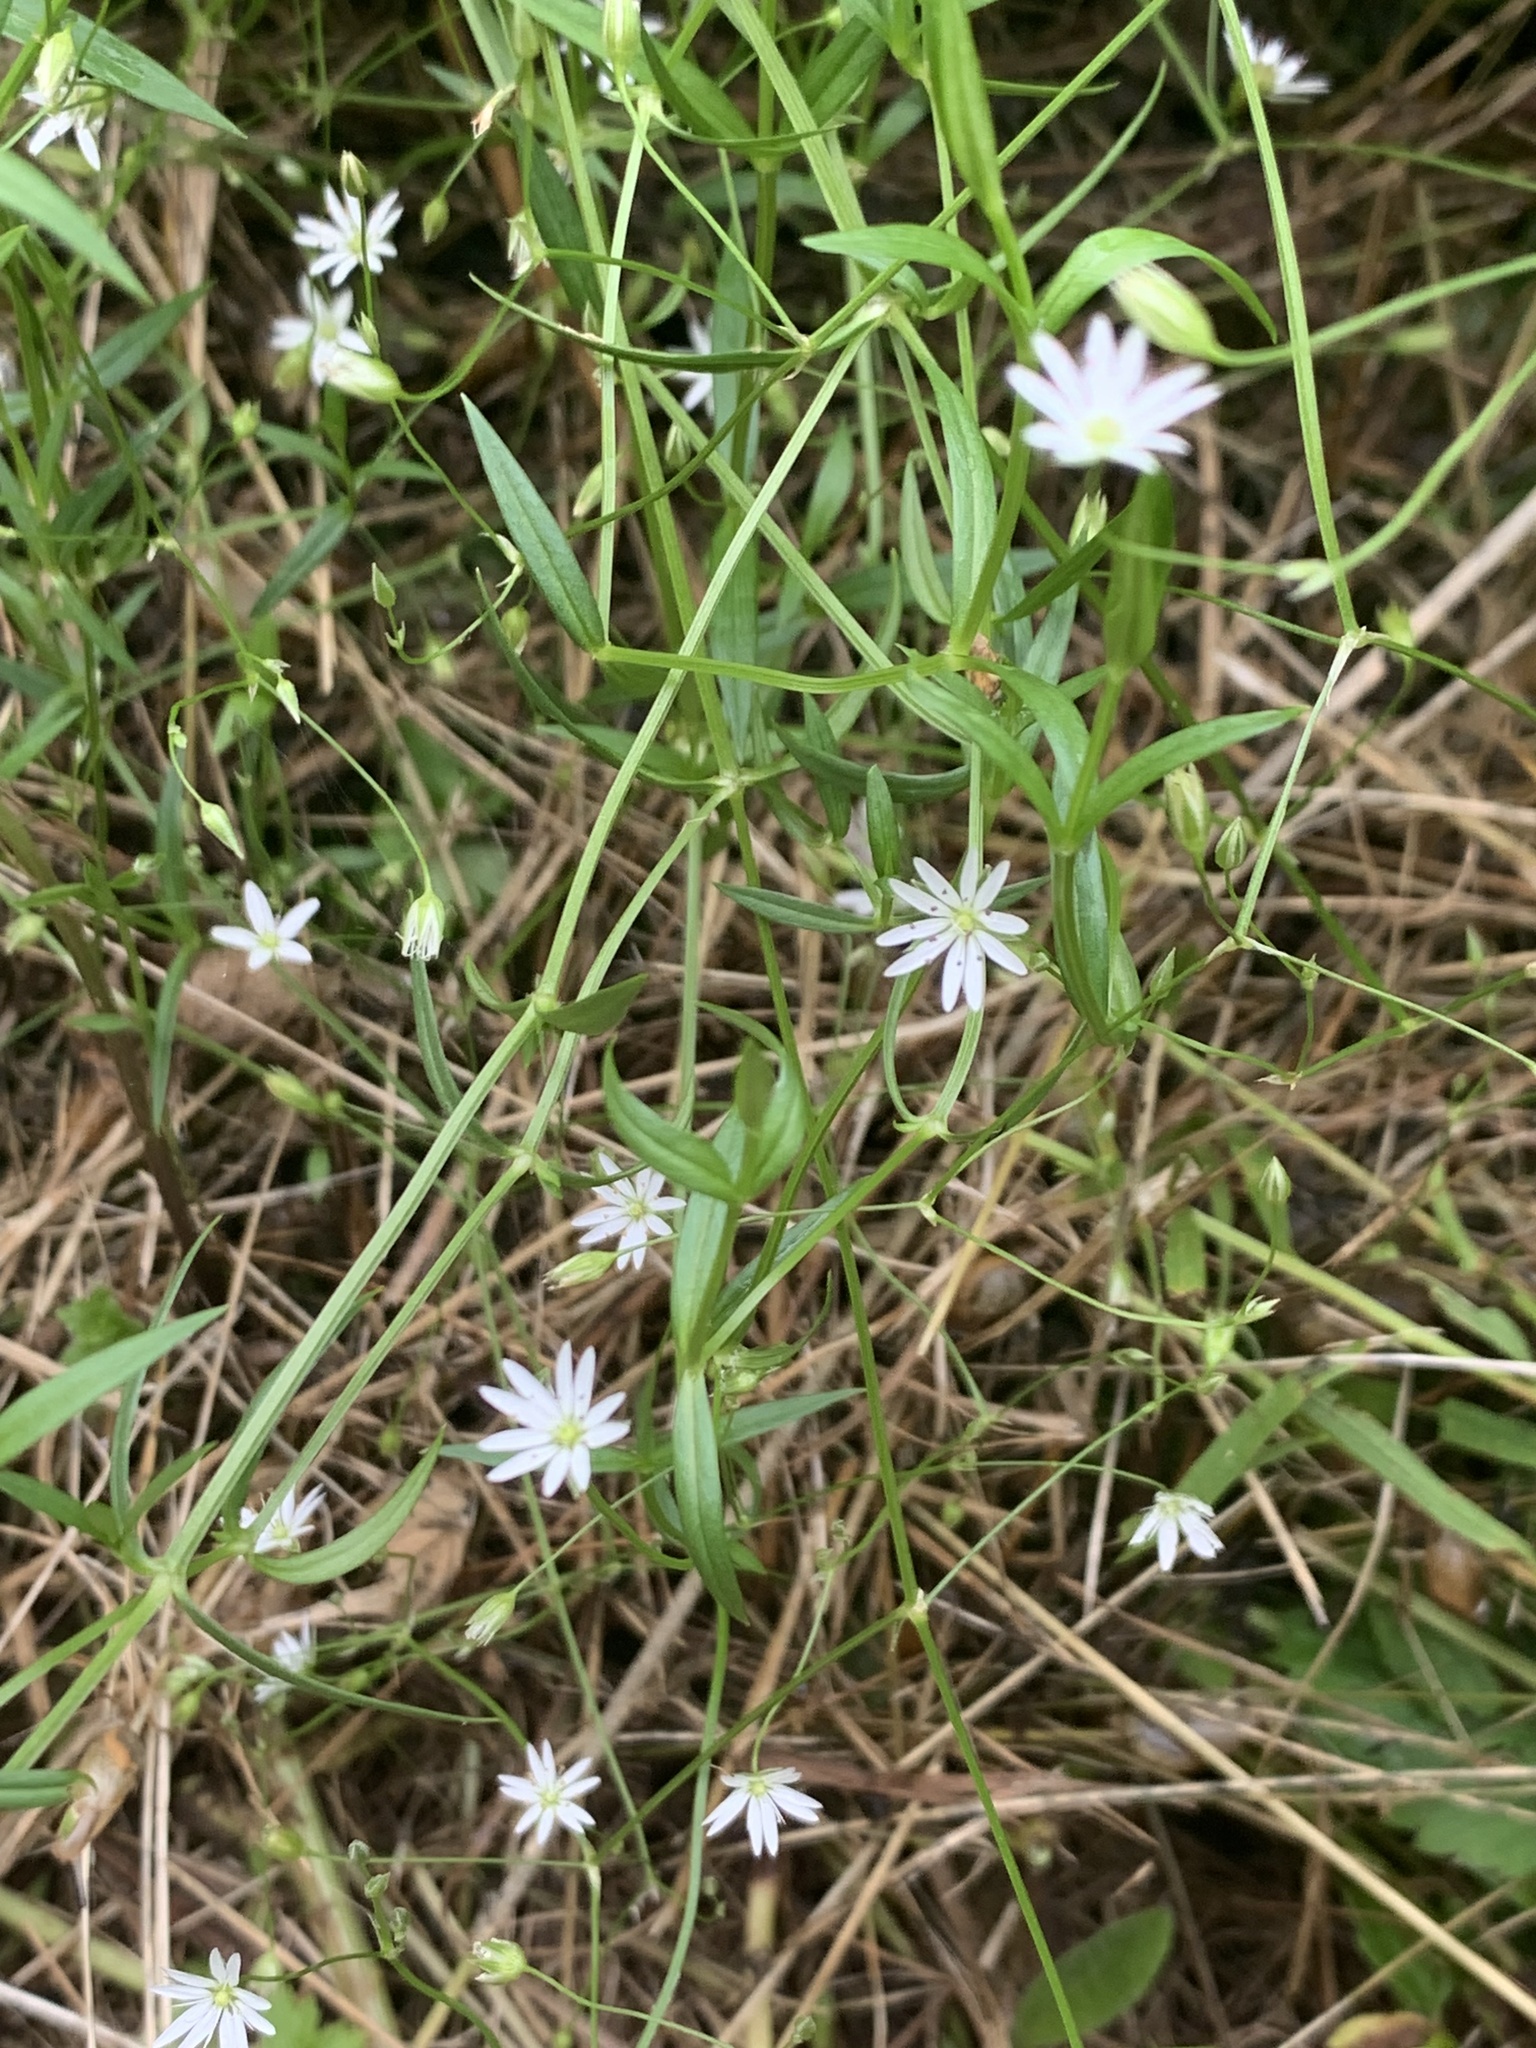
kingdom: Plantae
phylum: Tracheophyta
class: Magnoliopsida
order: Caryophyllales
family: Caryophyllaceae
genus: Stellaria
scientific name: Stellaria graminea
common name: Grass-like starwort
